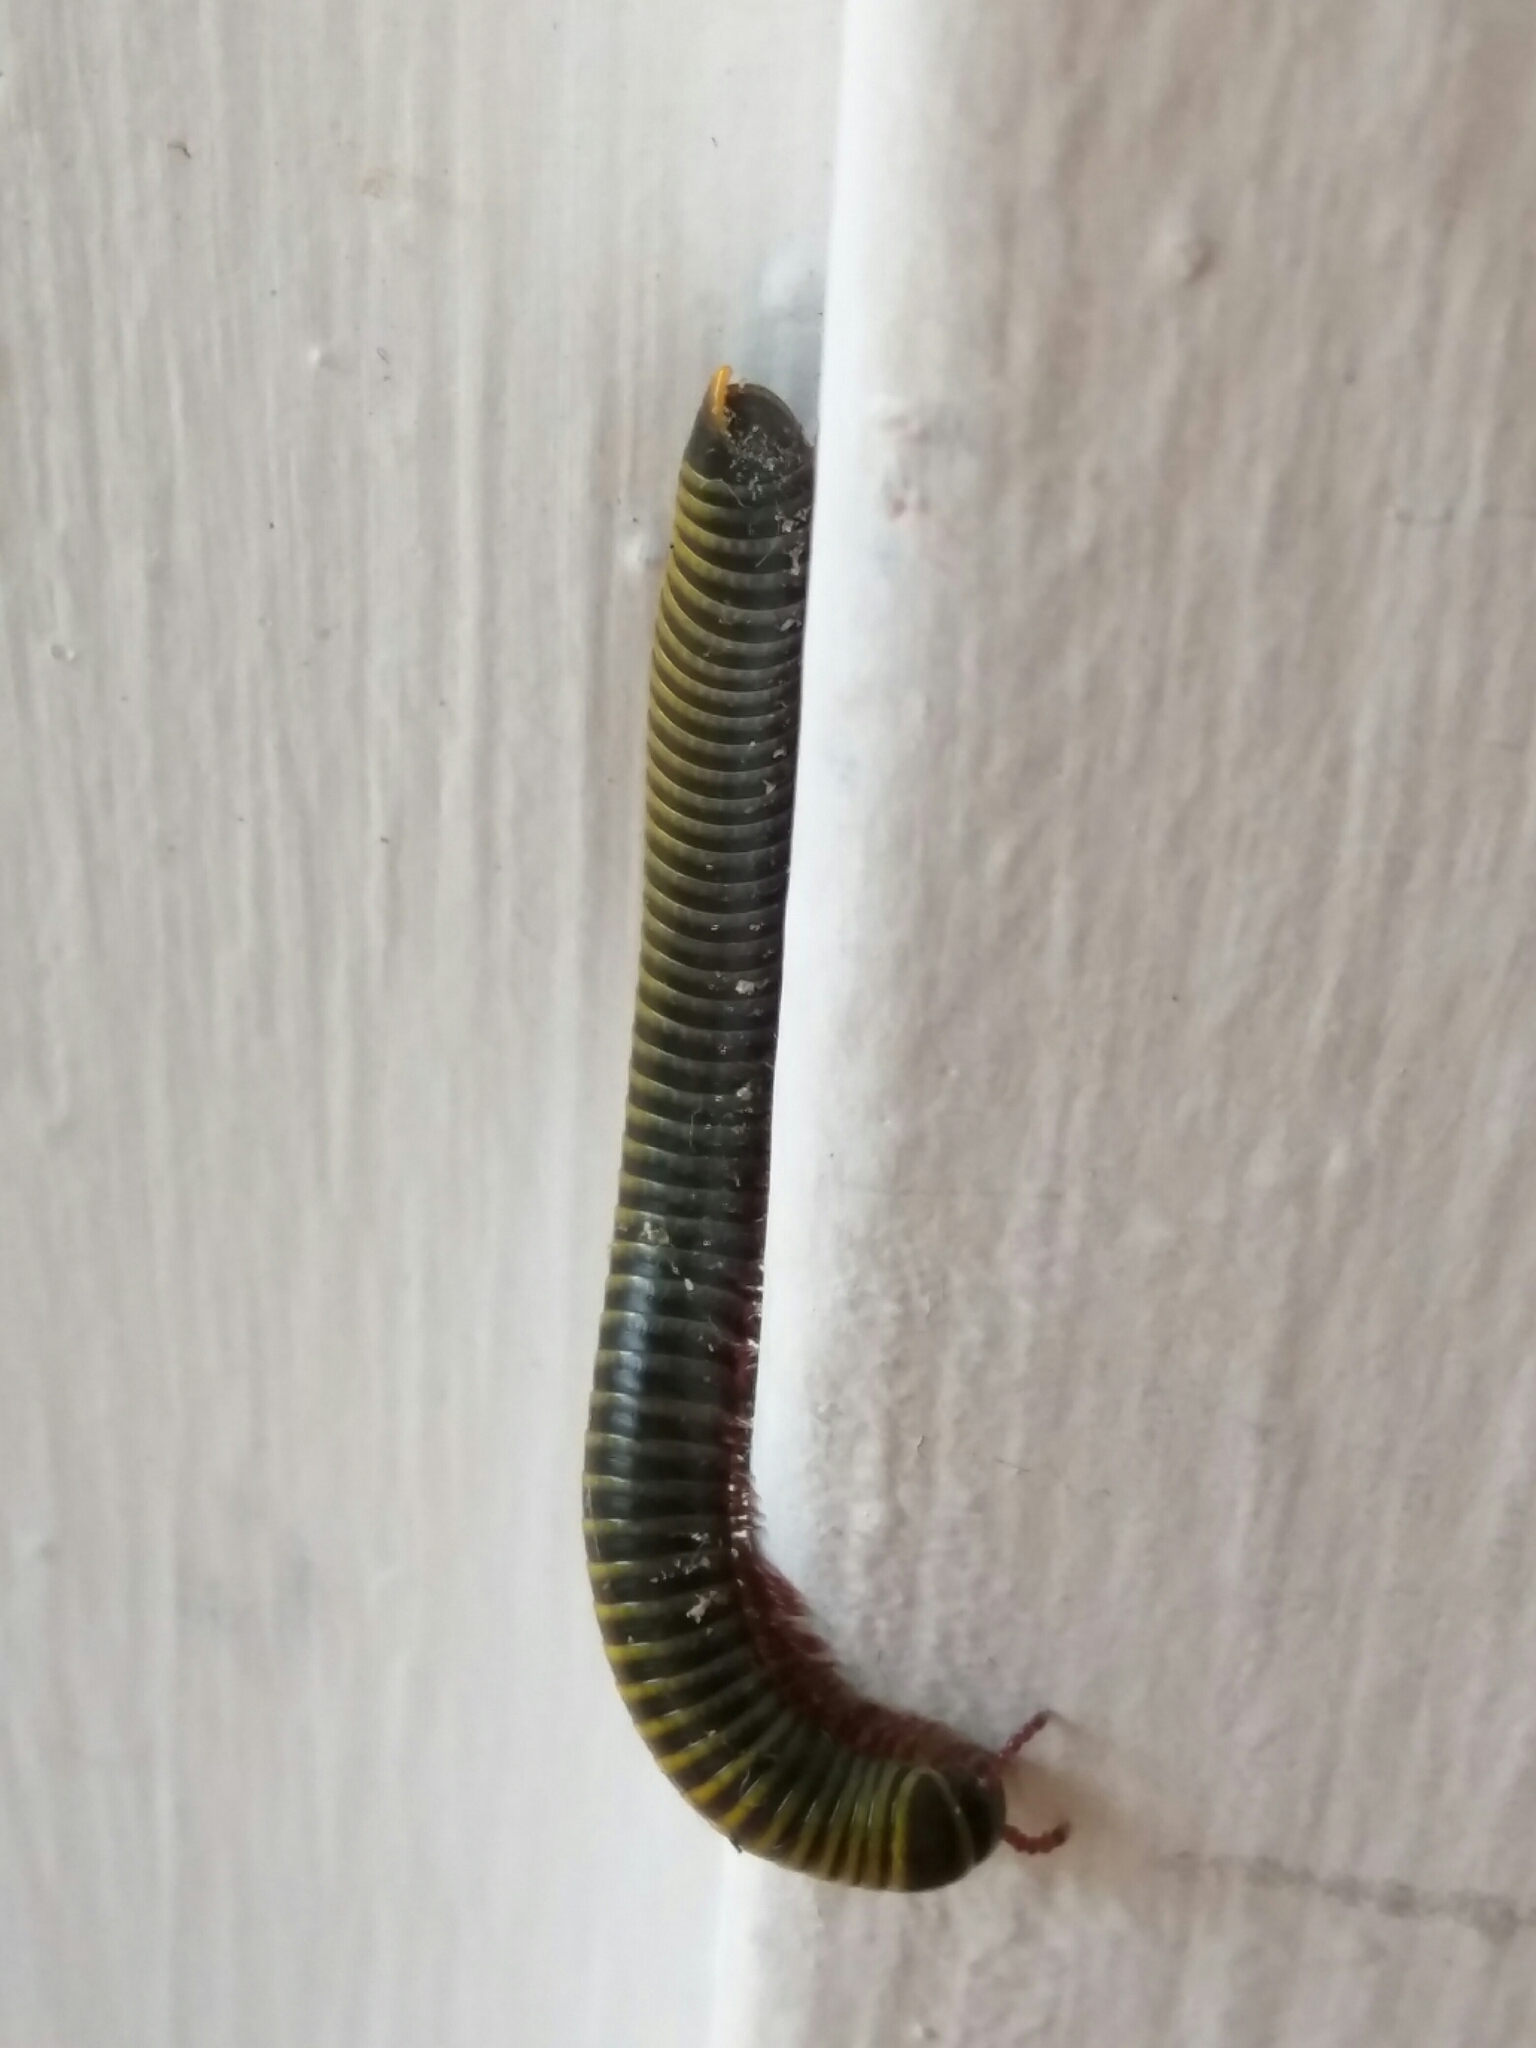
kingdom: Animalia
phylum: Arthropoda
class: Diplopoda
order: Spirobolida
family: Rhinocricidae
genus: Anadenobolus
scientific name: Anadenobolus monilicornis
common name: Caribbean millipede
